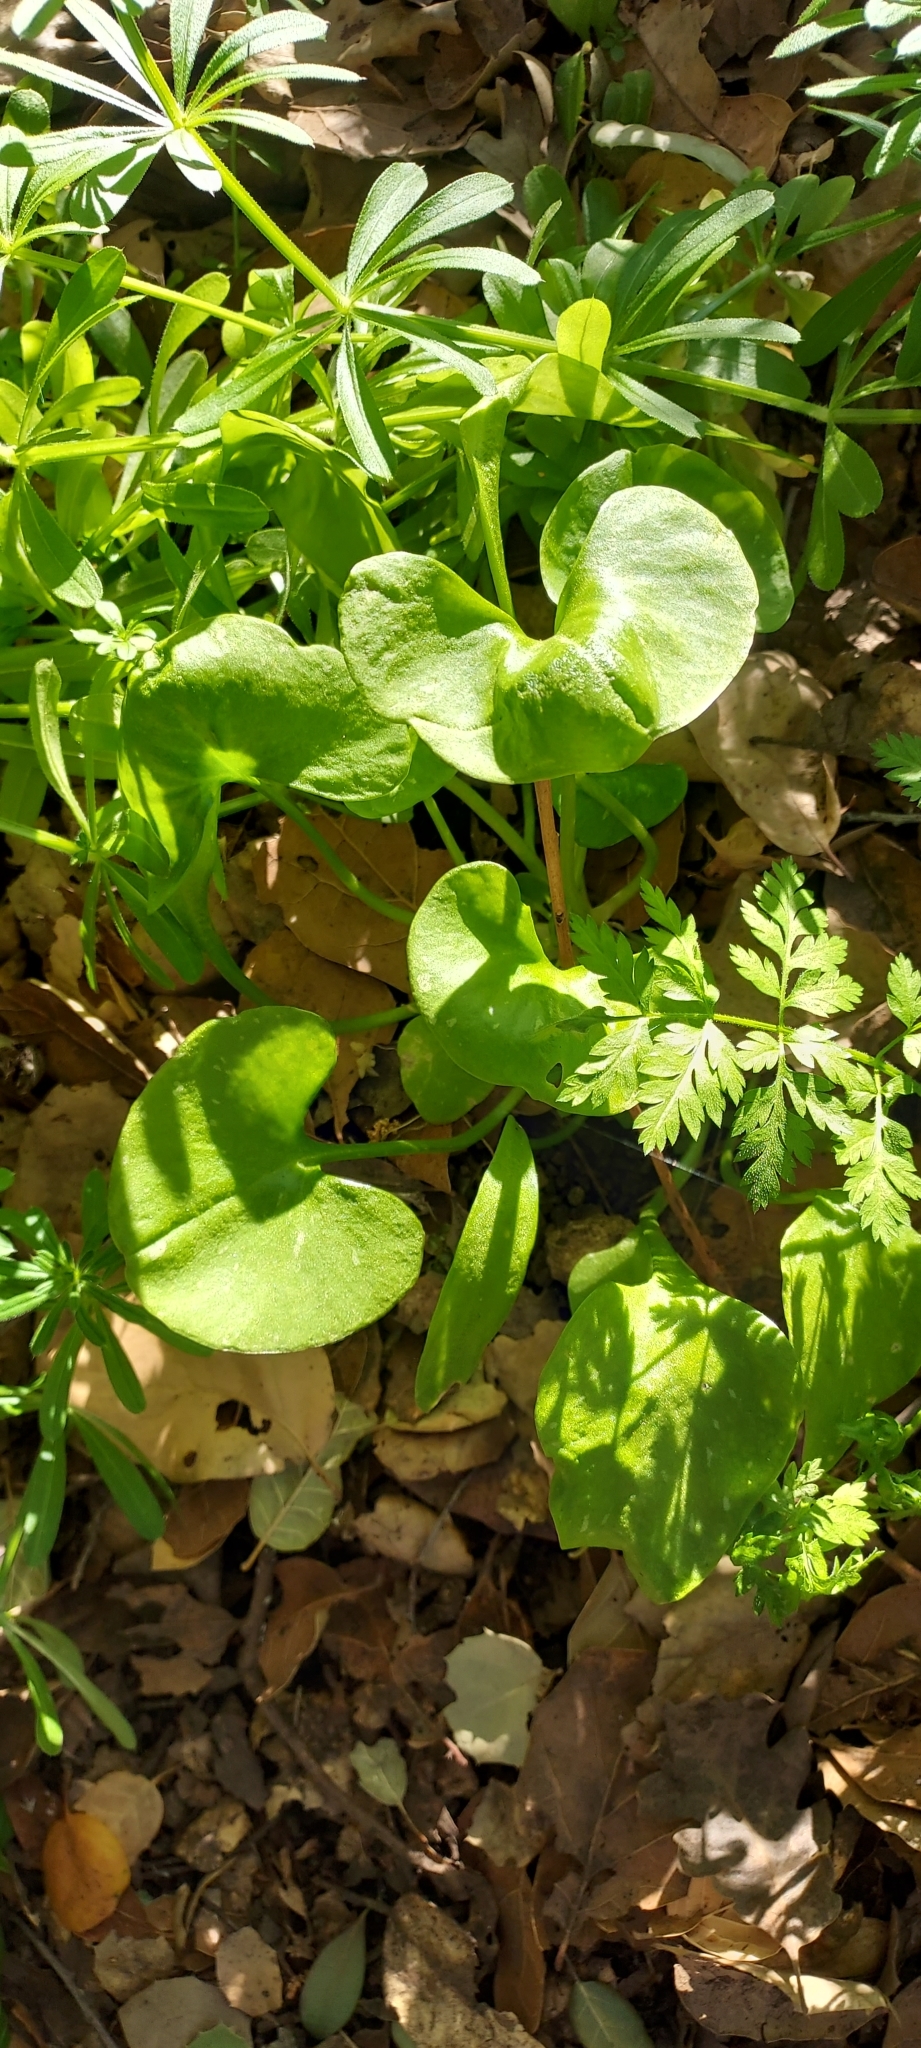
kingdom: Plantae
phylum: Tracheophyta
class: Magnoliopsida
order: Caryophyllales
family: Montiaceae
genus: Claytonia
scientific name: Claytonia perfoliata
